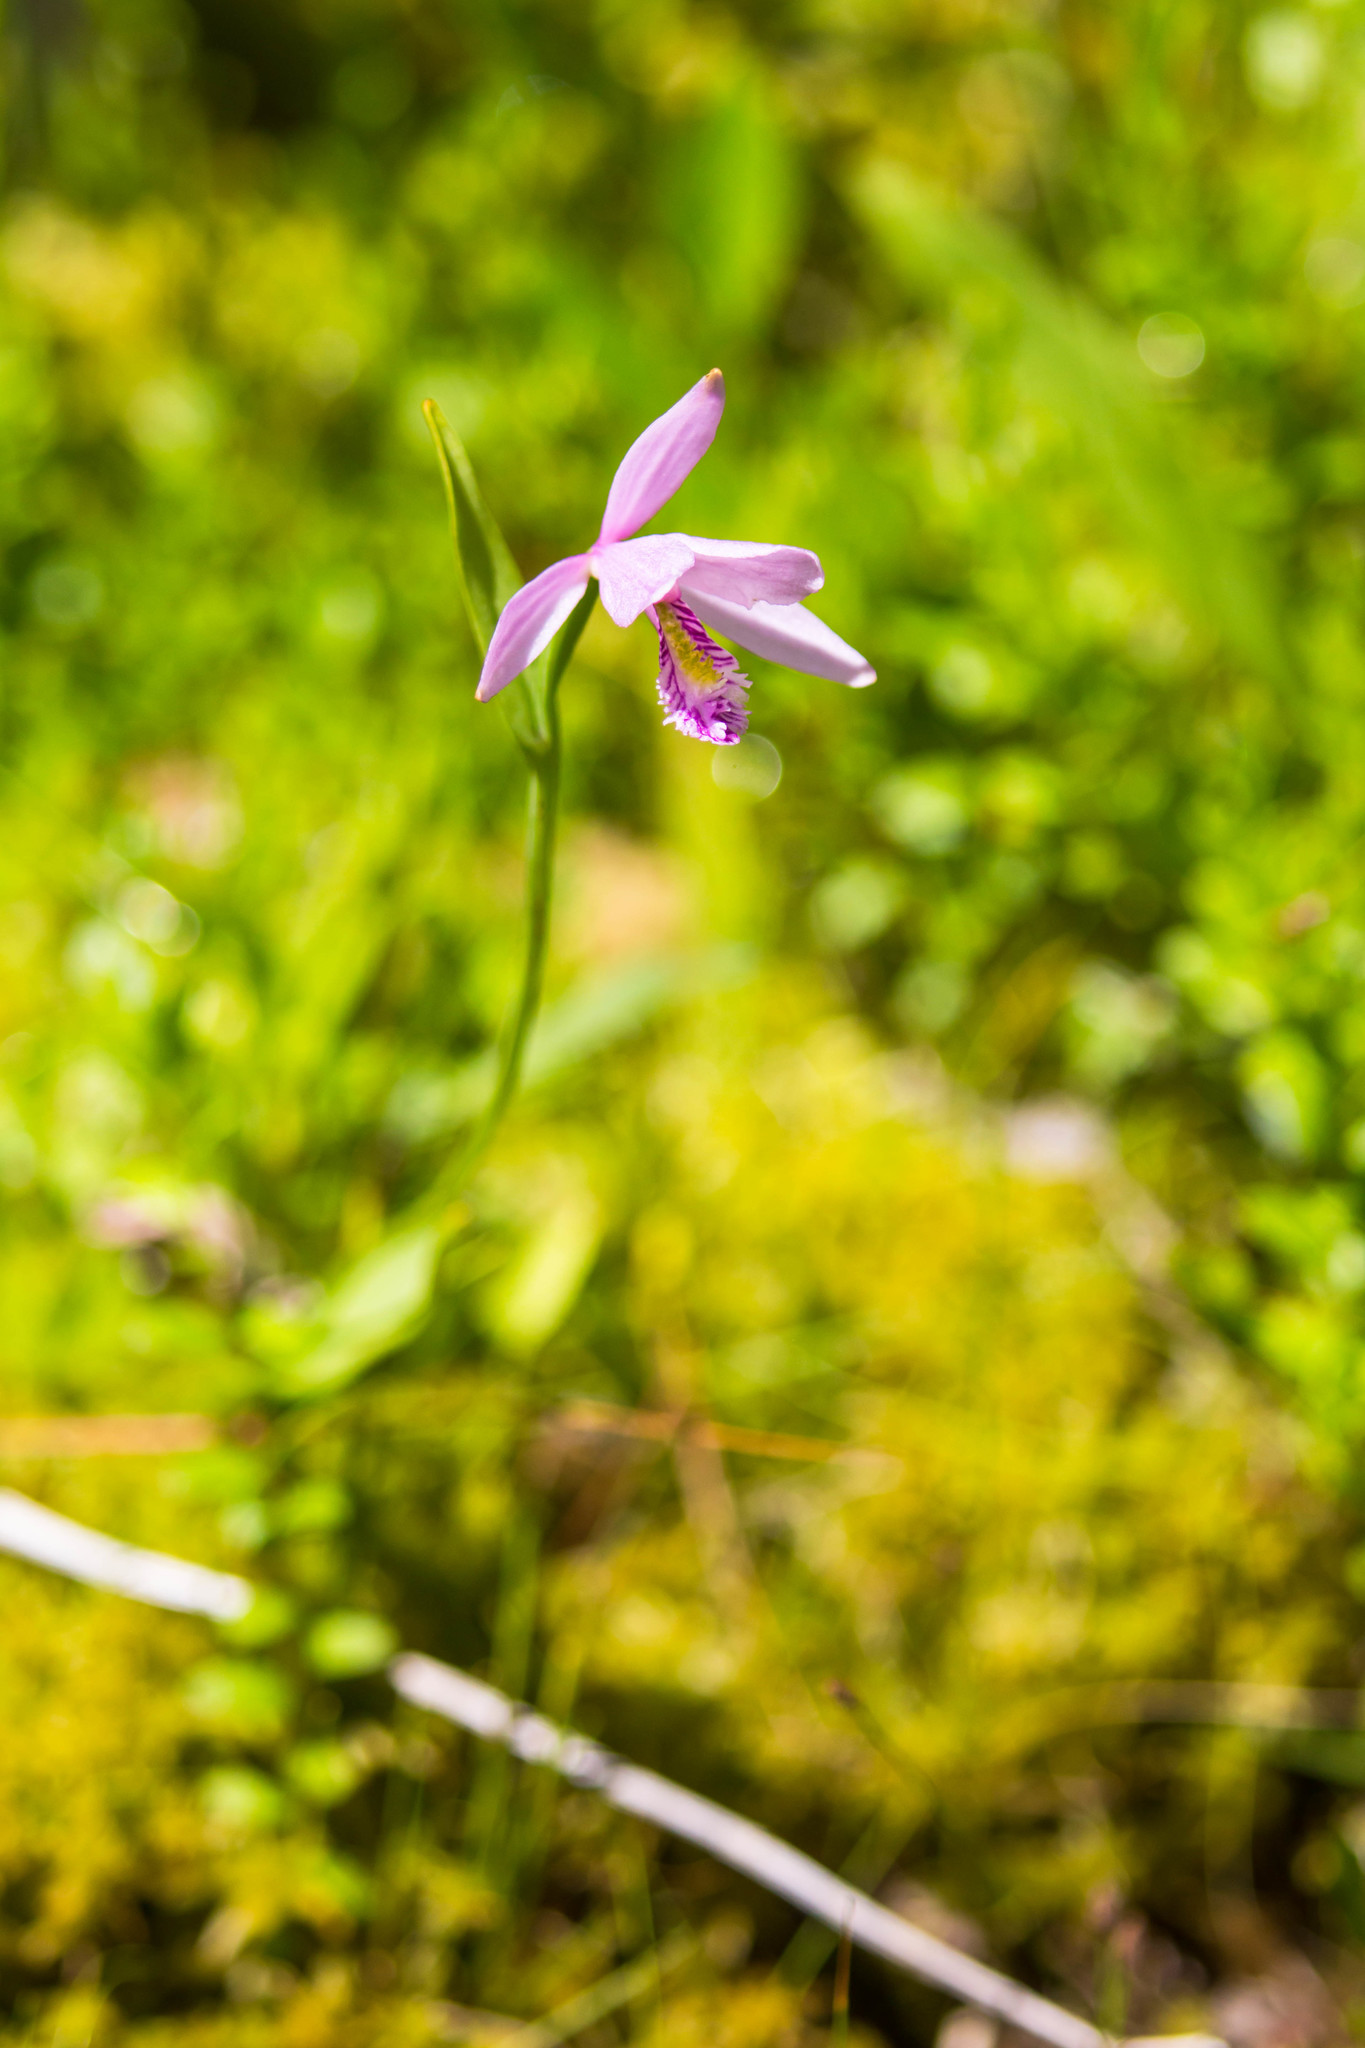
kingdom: Plantae
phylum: Tracheophyta
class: Liliopsida
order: Asparagales
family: Orchidaceae
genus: Pogonia
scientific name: Pogonia ophioglossoides
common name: Rose pogonia
